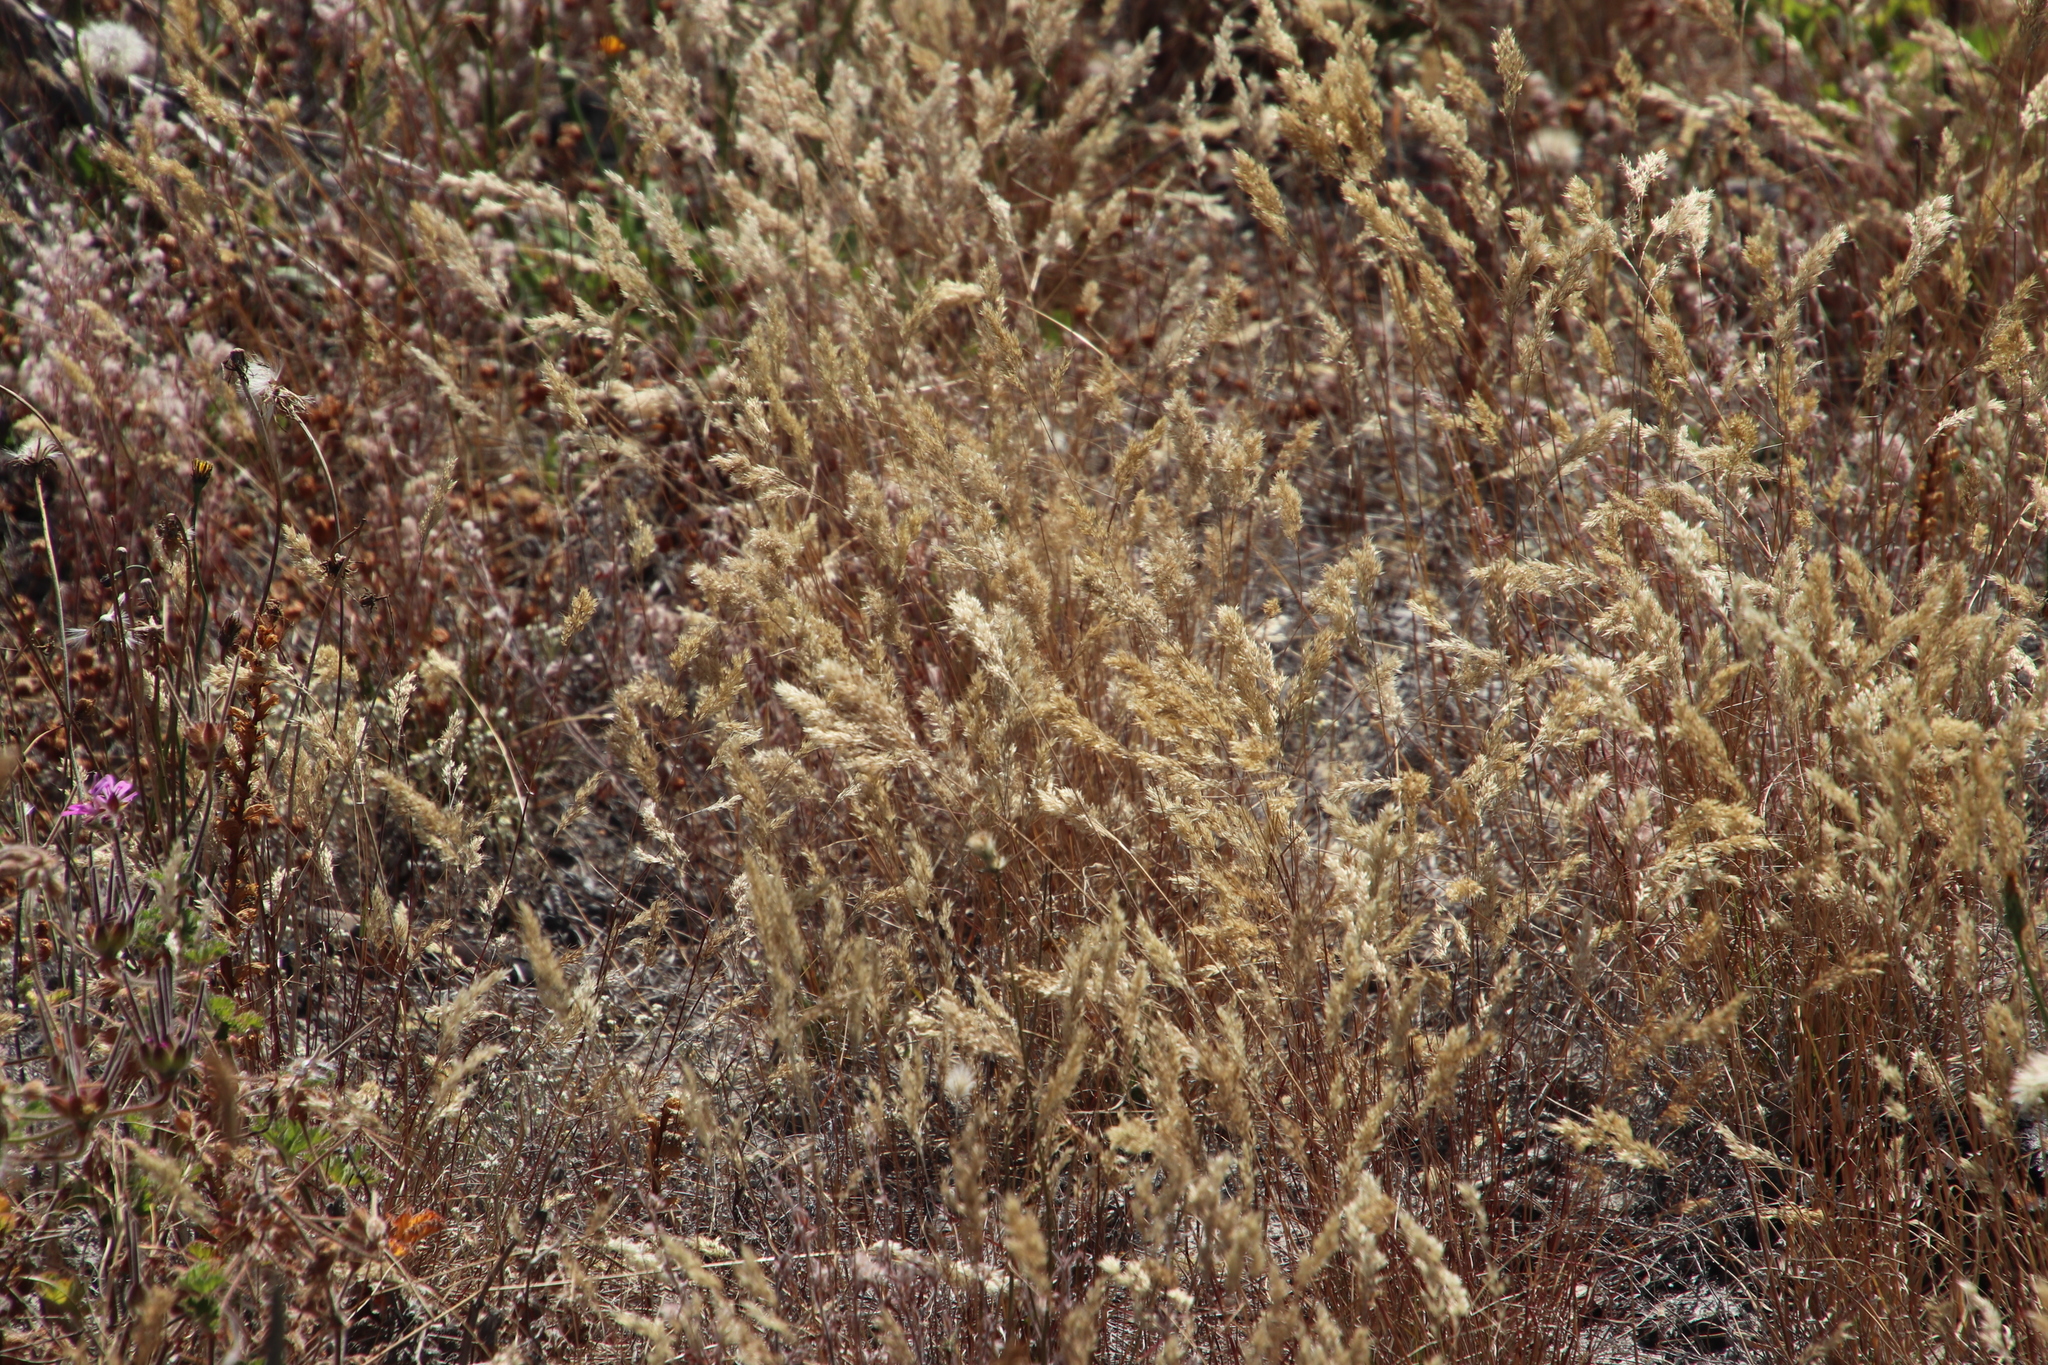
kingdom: Plantae
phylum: Tracheophyta
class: Liliopsida
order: Poales
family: Poaceae
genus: Pentameris
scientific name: Pentameris pallida
